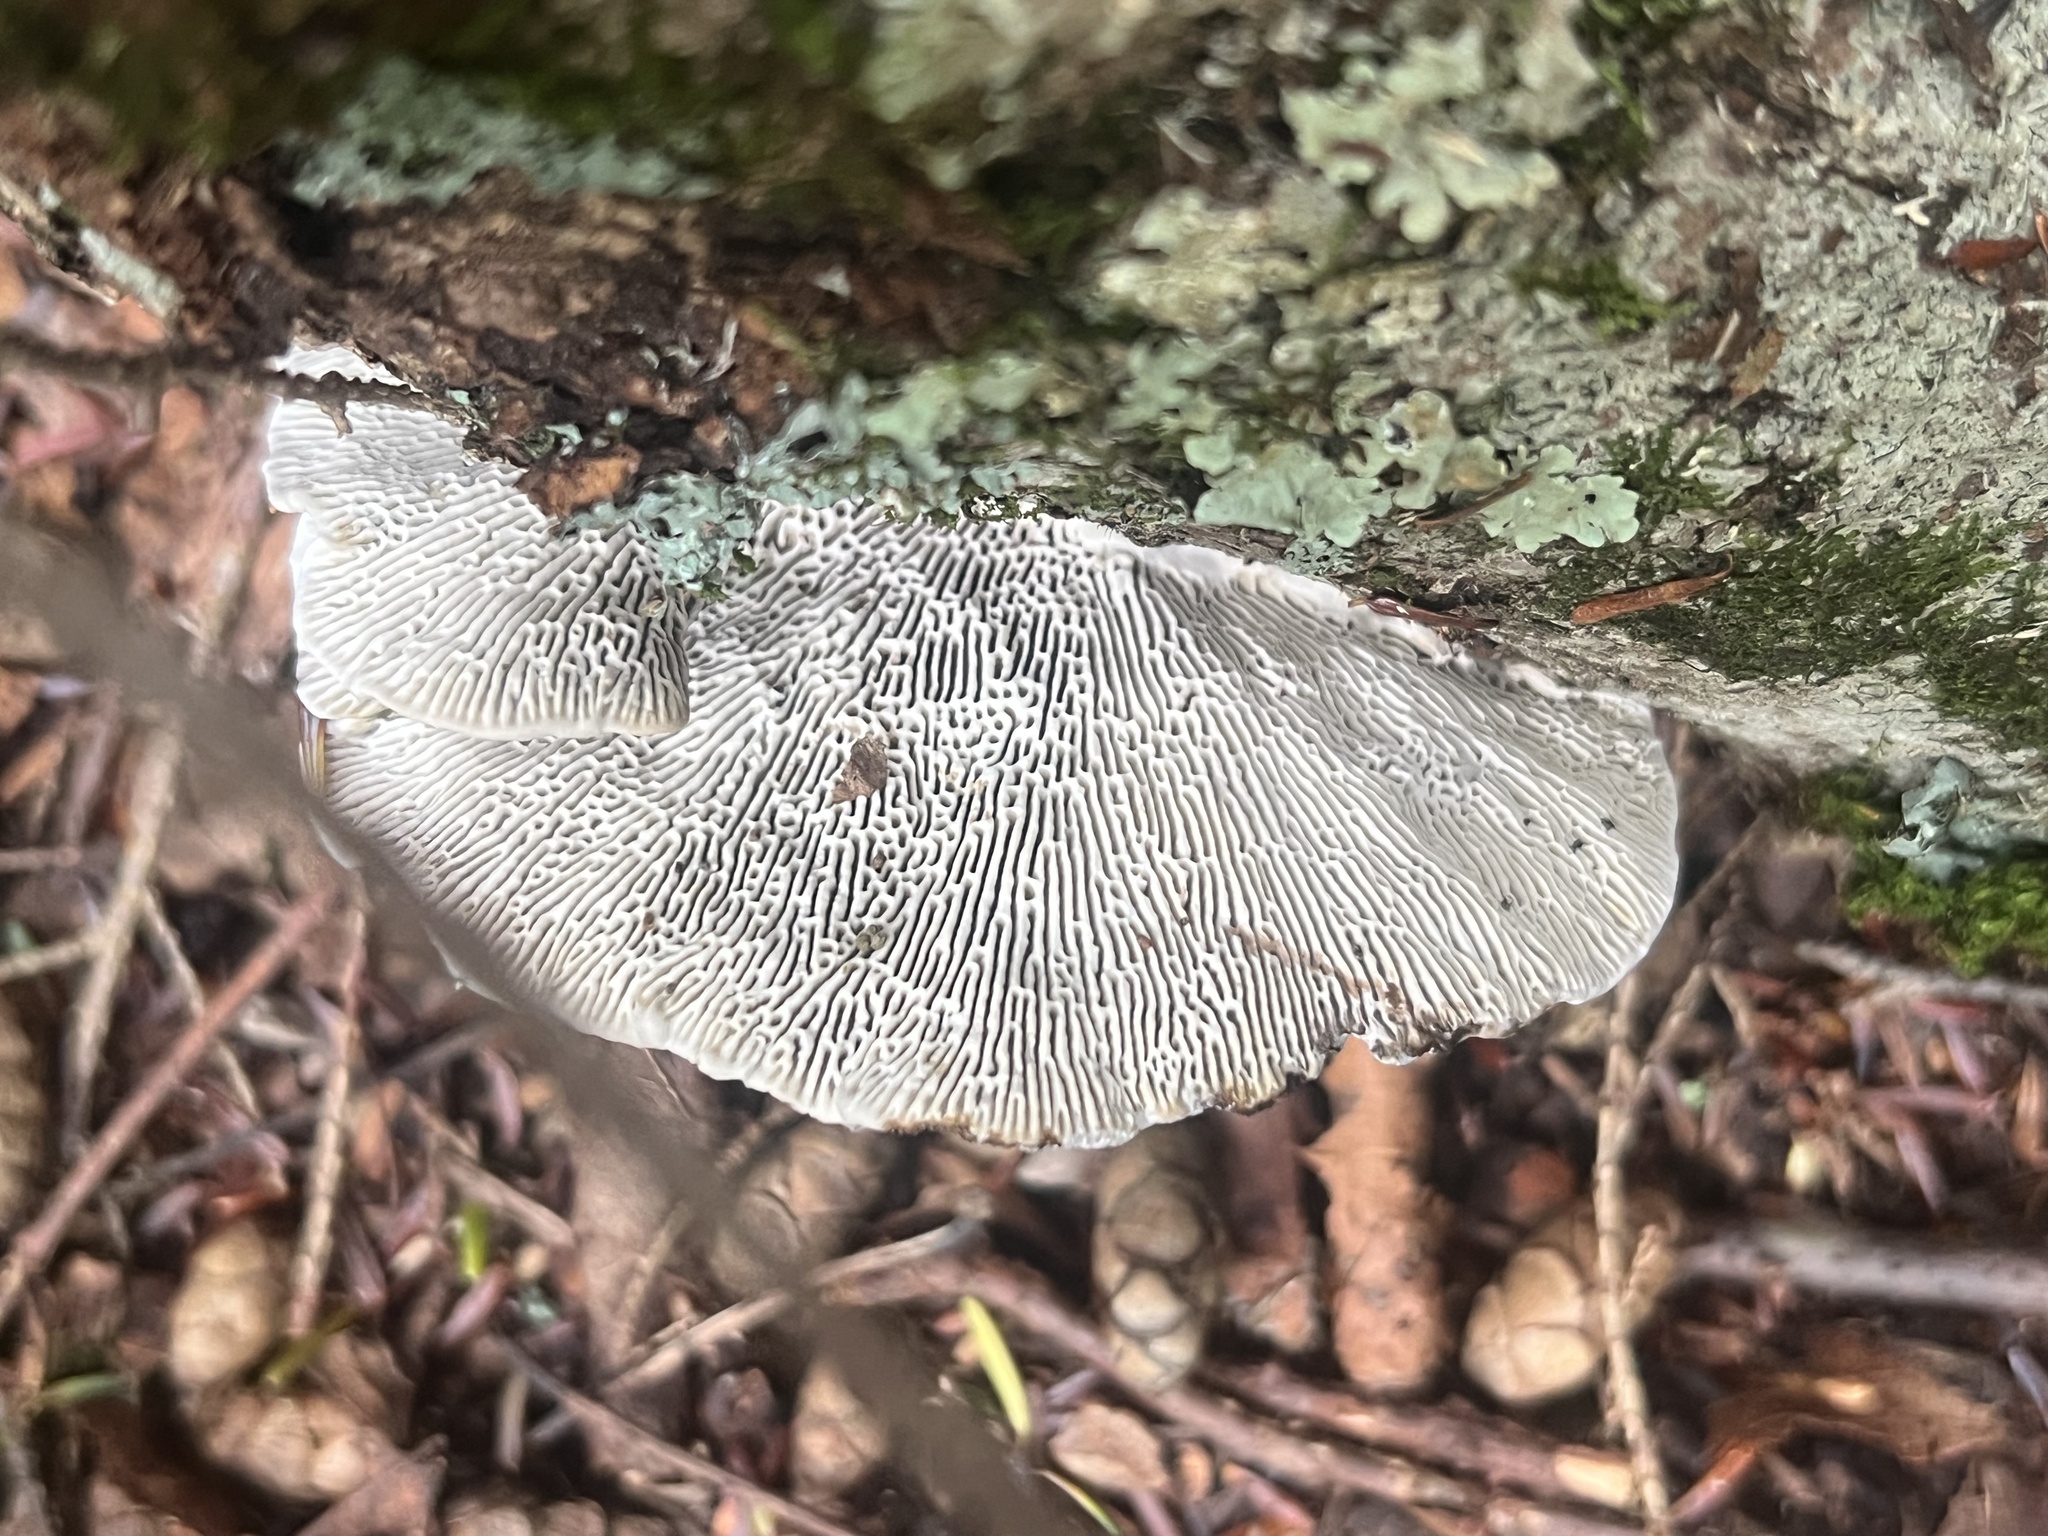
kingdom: Fungi
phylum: Basidiomycota
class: Agaricomycetes
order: Polyporales
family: Polyporaceae
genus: Daedaleopsis
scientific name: Daedaleopsis confragosa
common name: Blushing bracket
